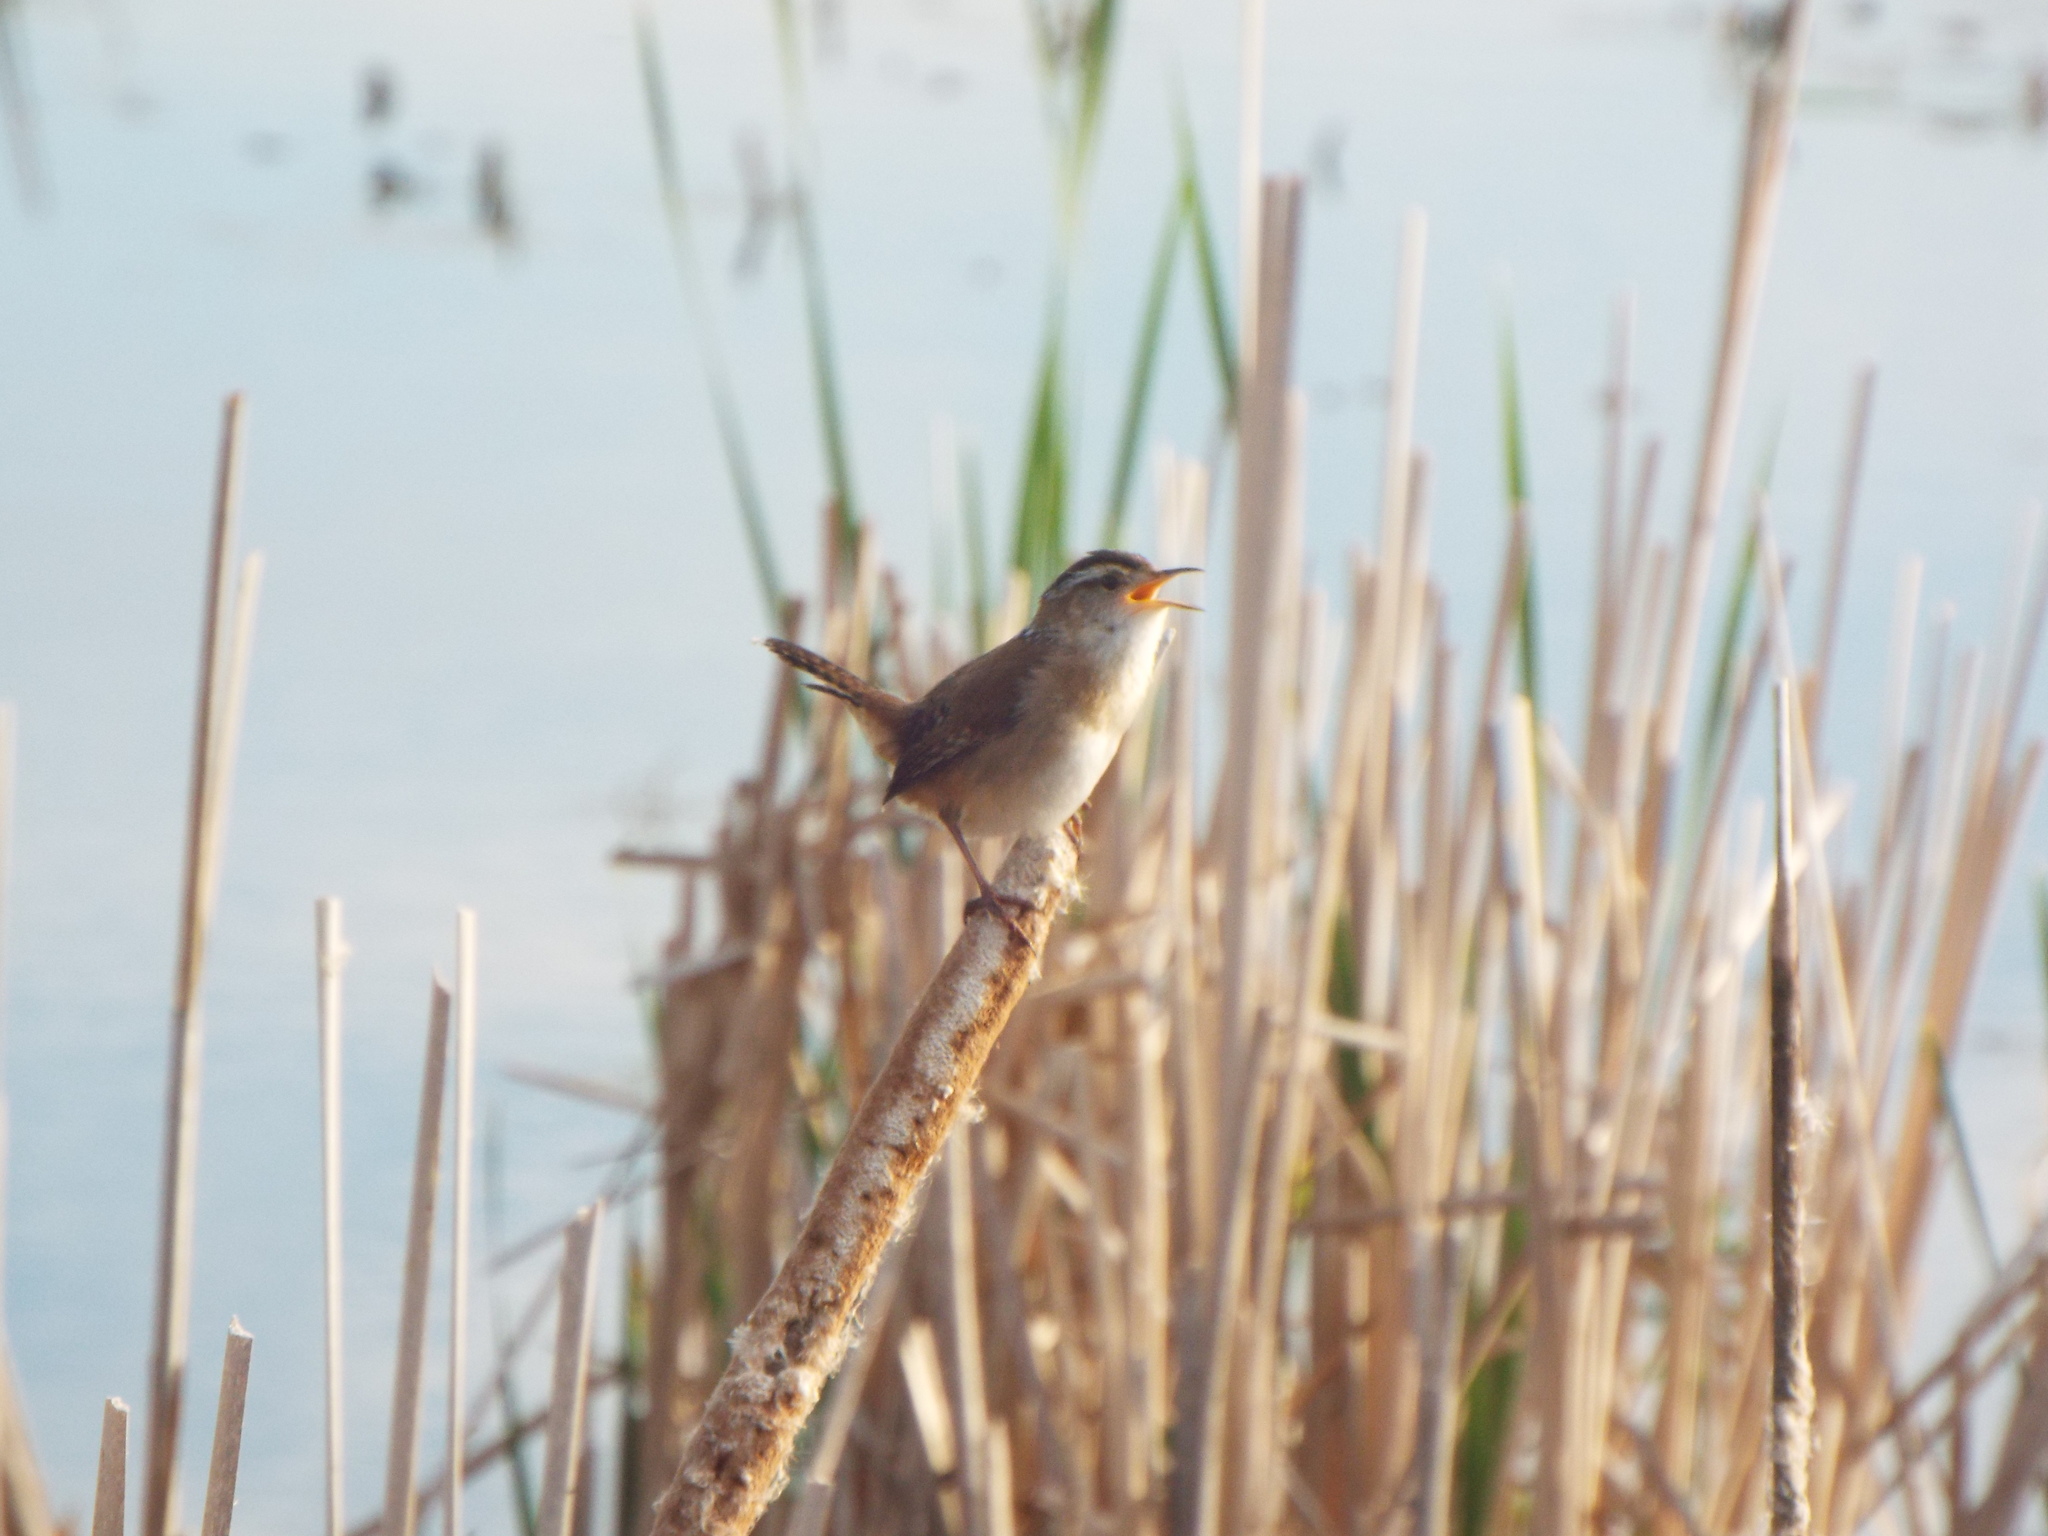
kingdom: Animalia
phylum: Chordata
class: Aves
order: Passeriformes
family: Troglodytidae
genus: Cistothorus
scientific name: Cistothorus palustris
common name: Marsh wren
